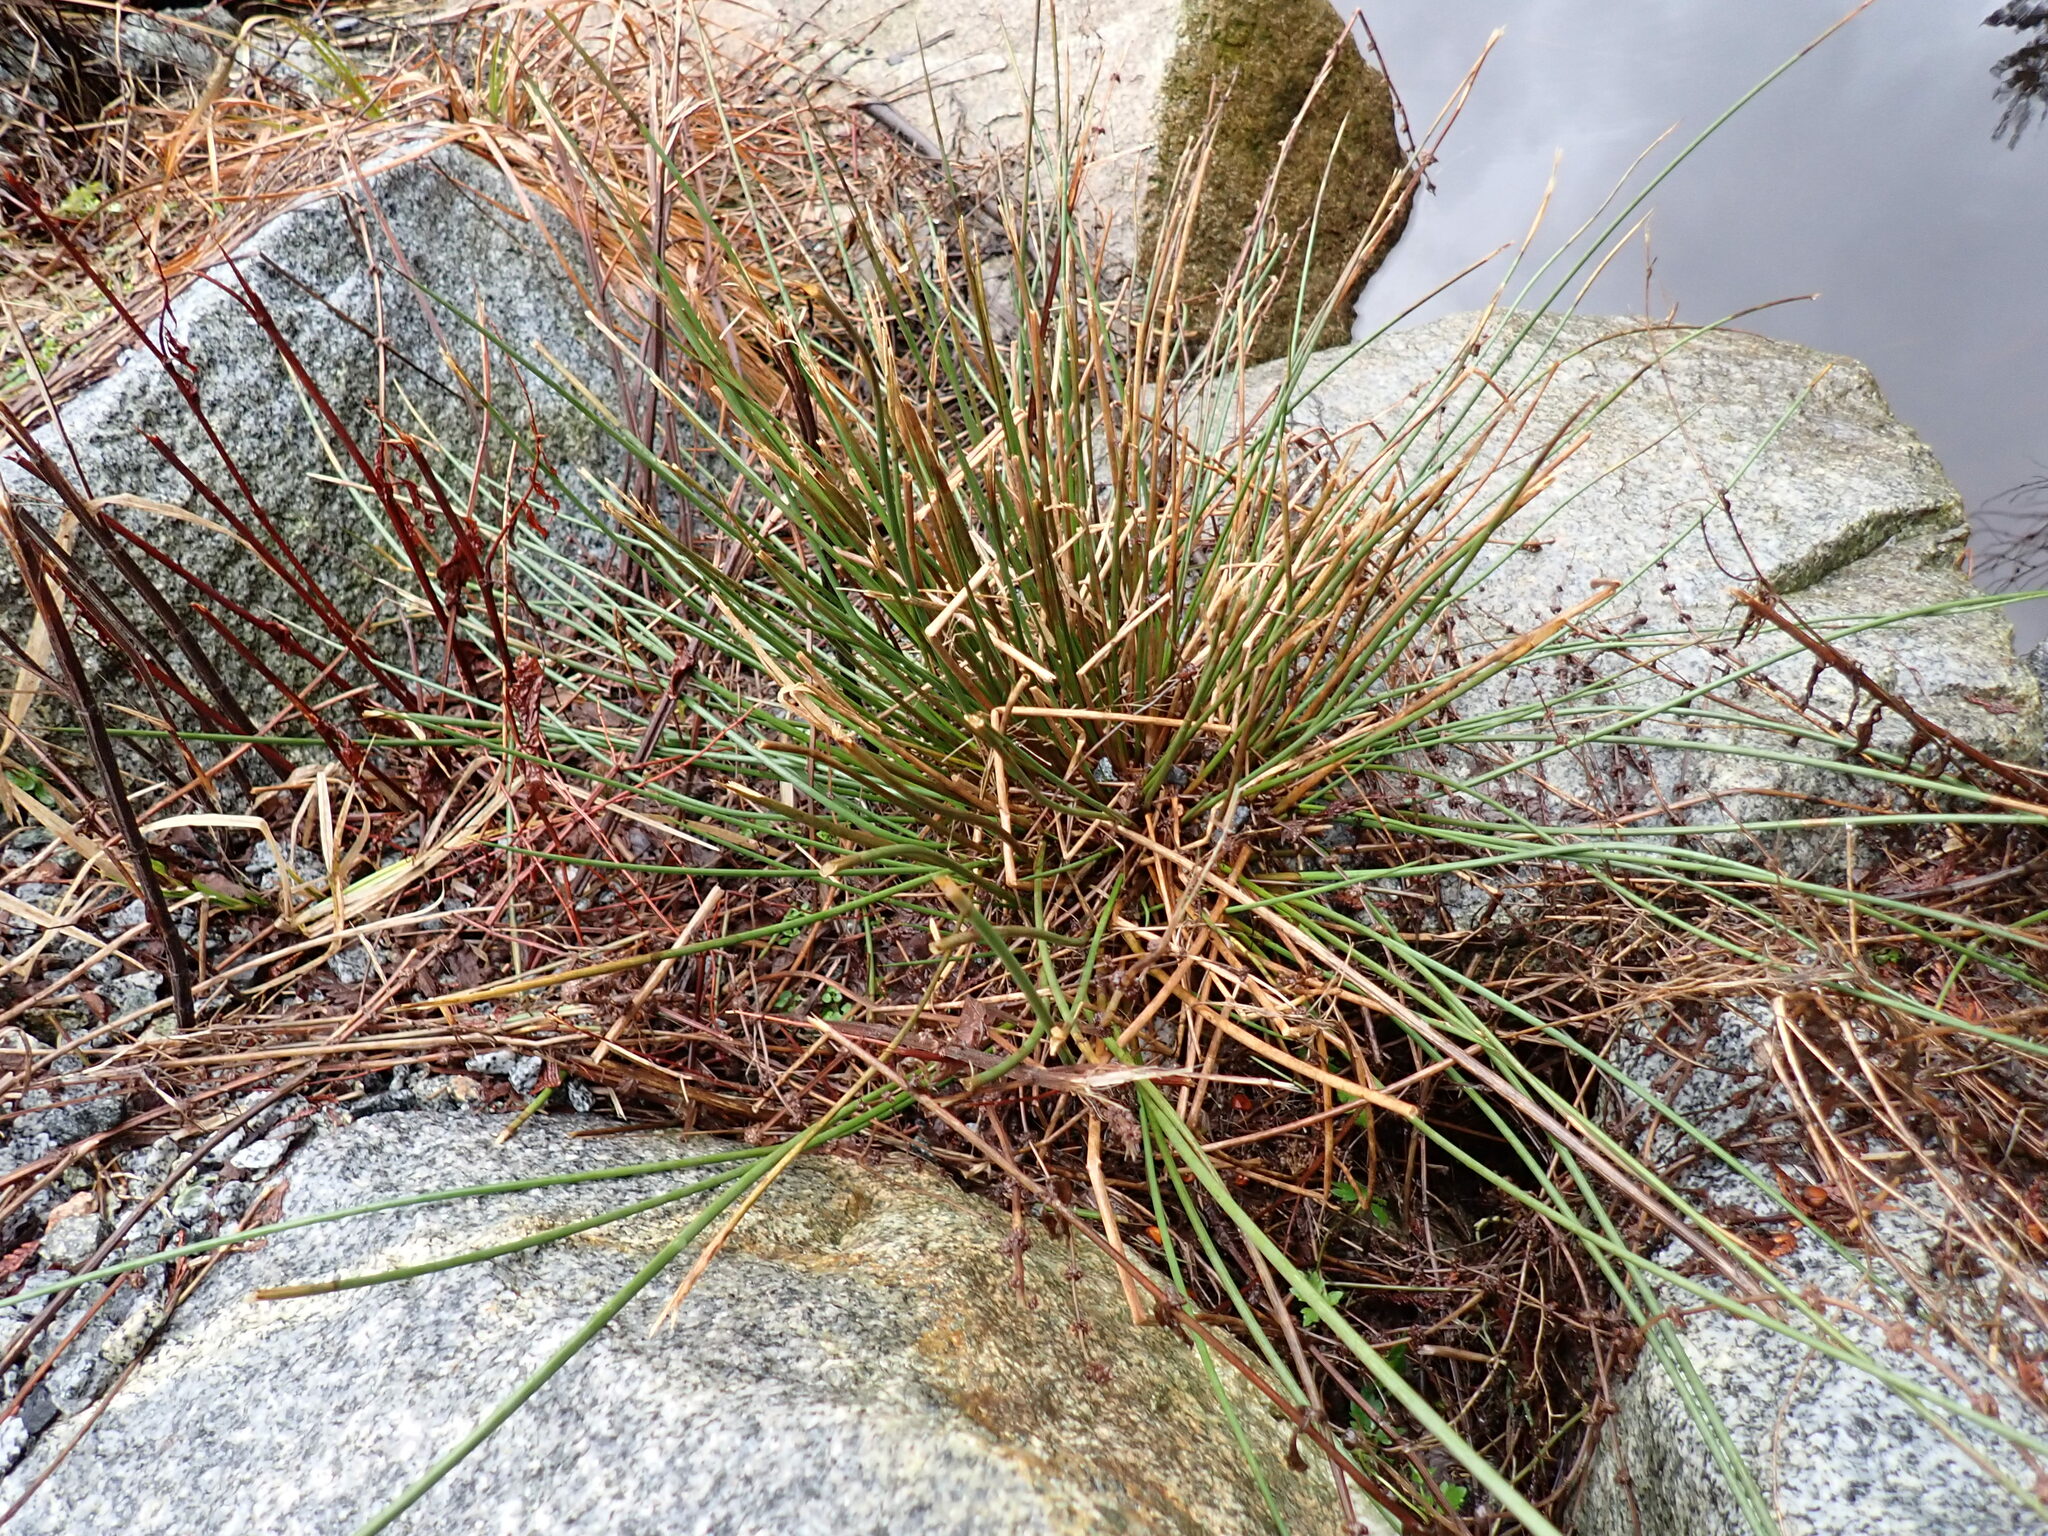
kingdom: Plantae
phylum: Tracheophyta
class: Liliopsida
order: Poales
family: Juncaceae
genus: Juncus
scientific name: Juncus effusus
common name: Soft rush
